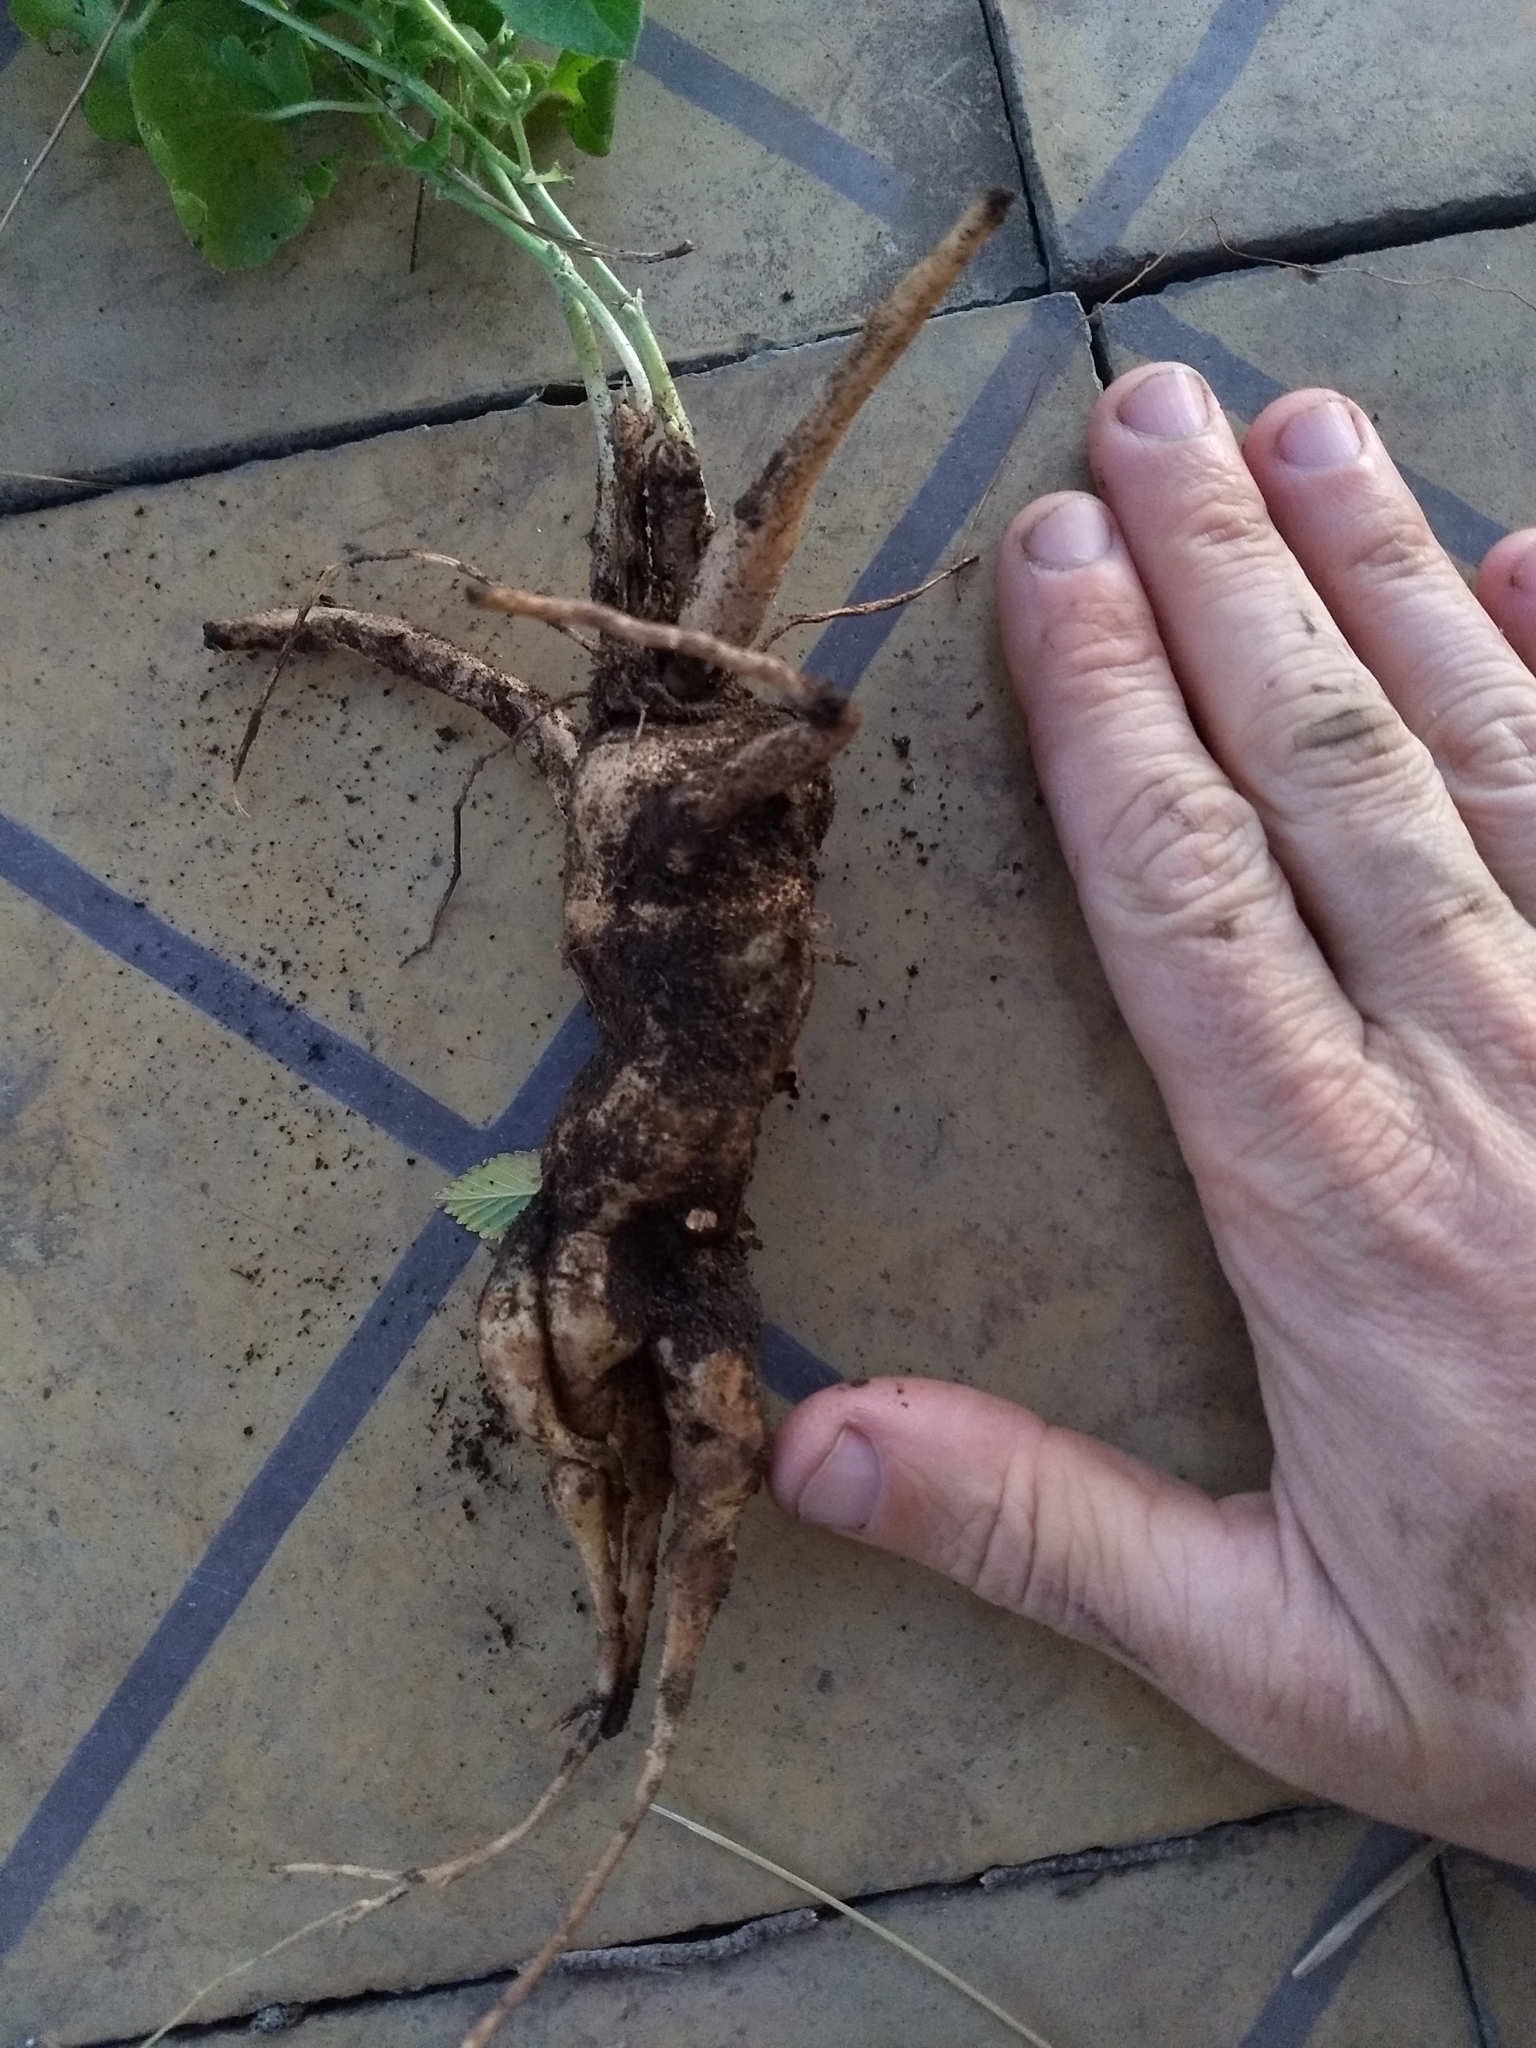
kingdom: Plantae
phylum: Tracheophyta
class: Magnoliopsida
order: Cucurbitales
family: Cucurbitaceae
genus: Apodanthera
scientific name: Apodanthera sagittifolia
